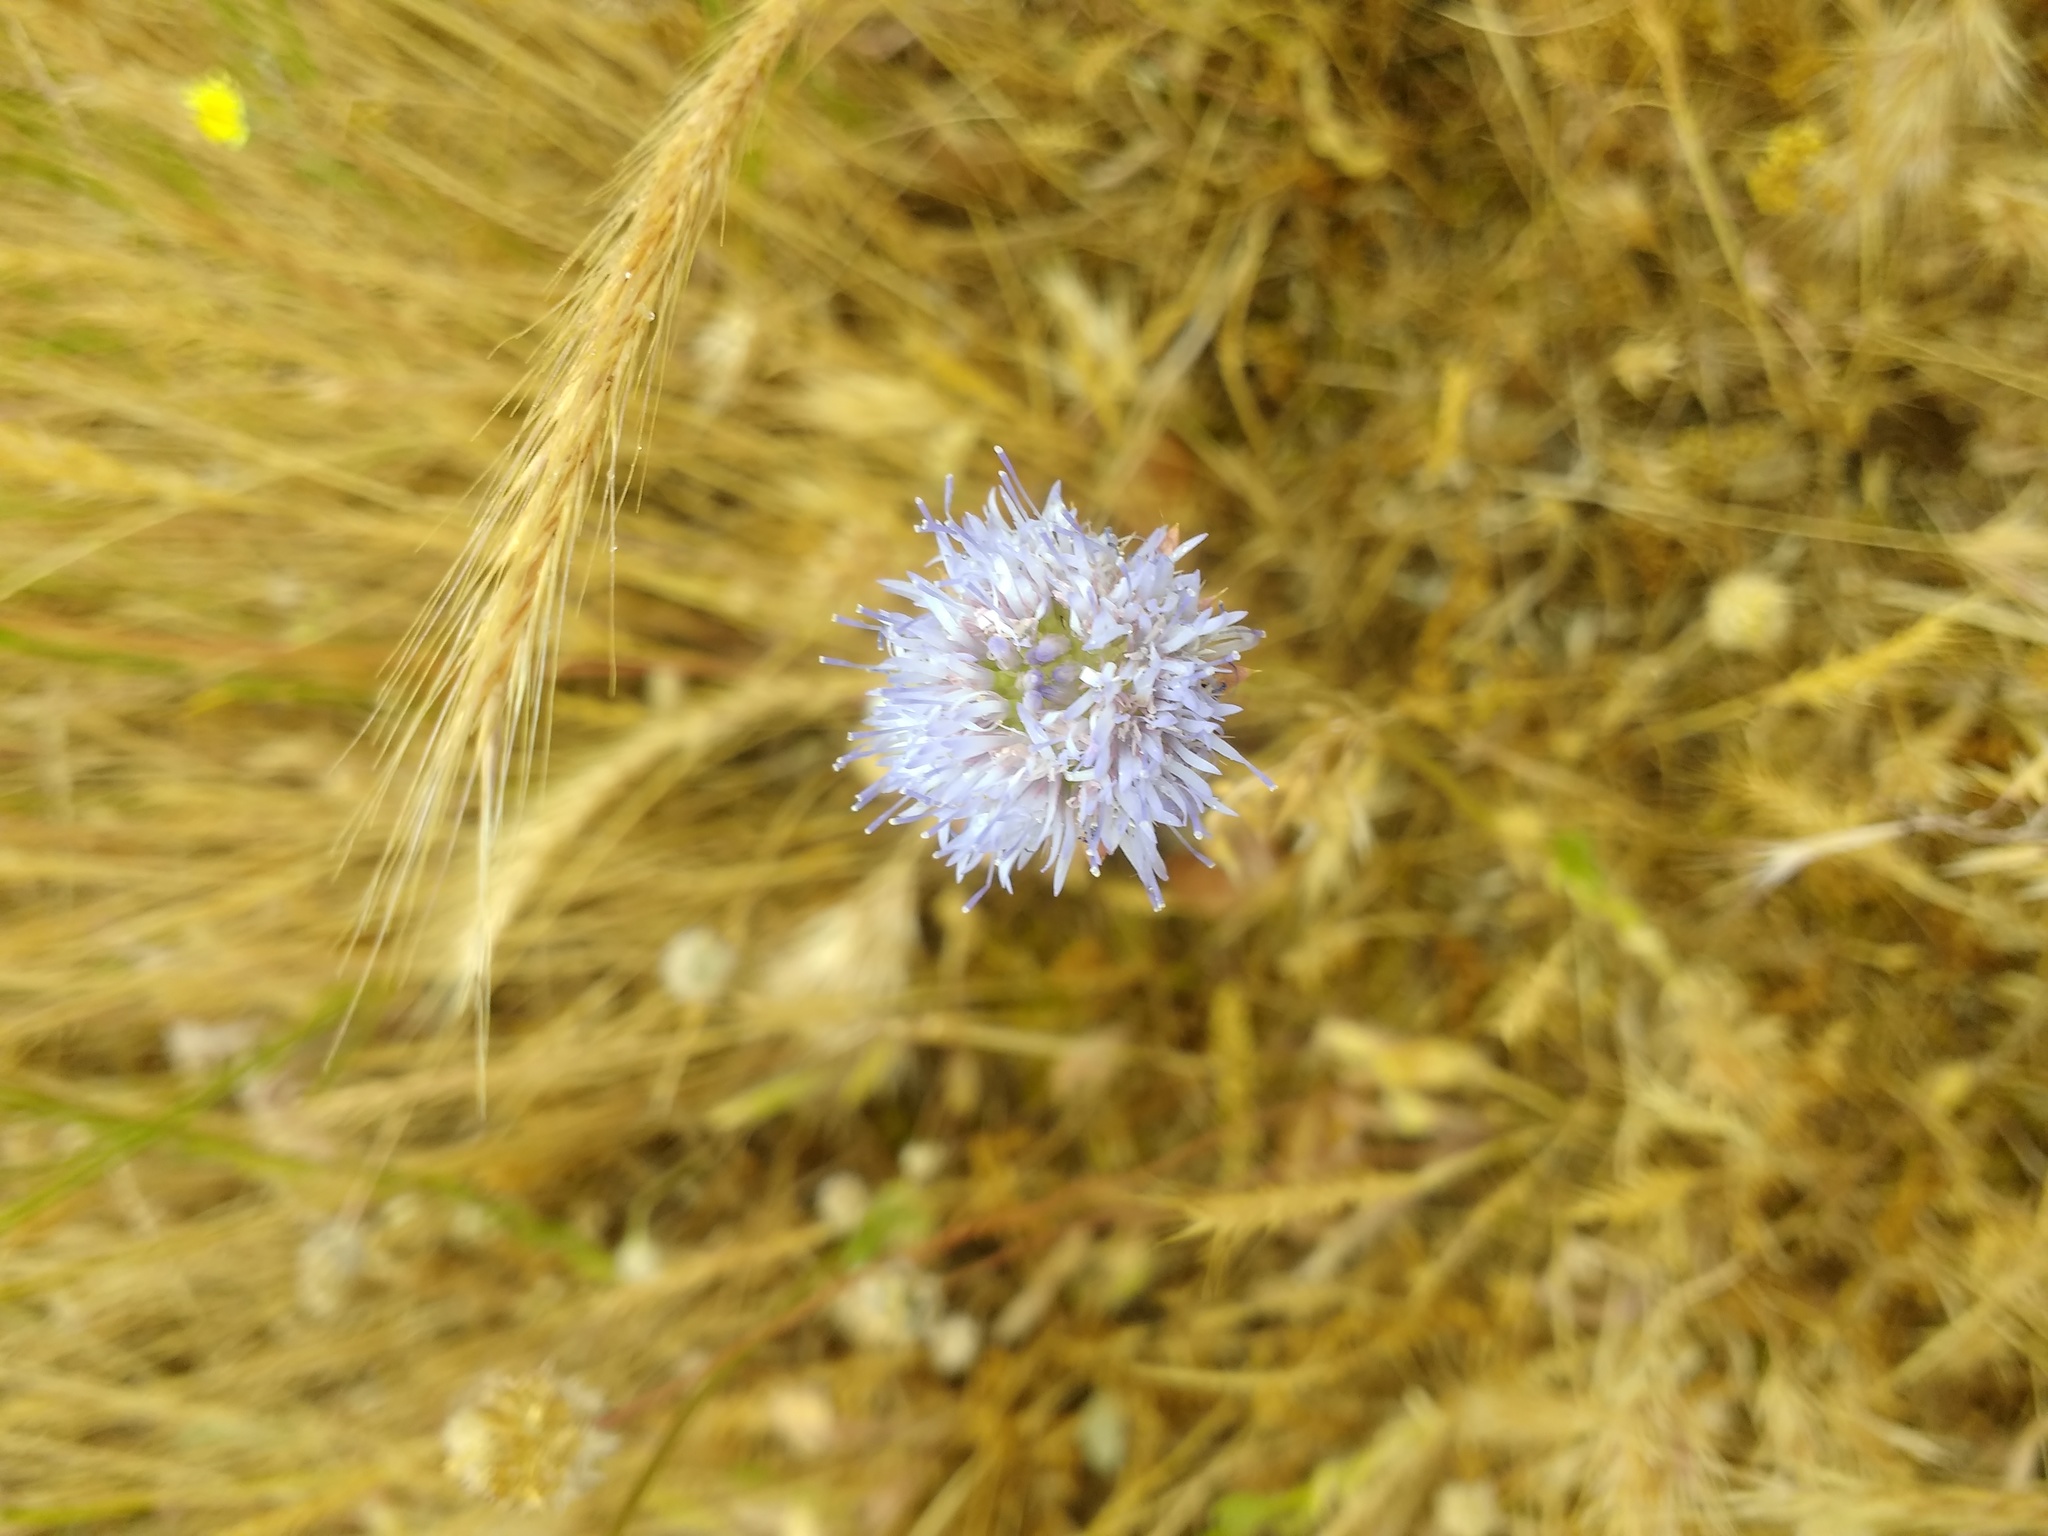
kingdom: Plantae
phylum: Tracheophyta
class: Magnoliopsida
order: Asterales
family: Campanulaceae
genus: Jasione
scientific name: Jasione montana
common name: Sheep's-bit
